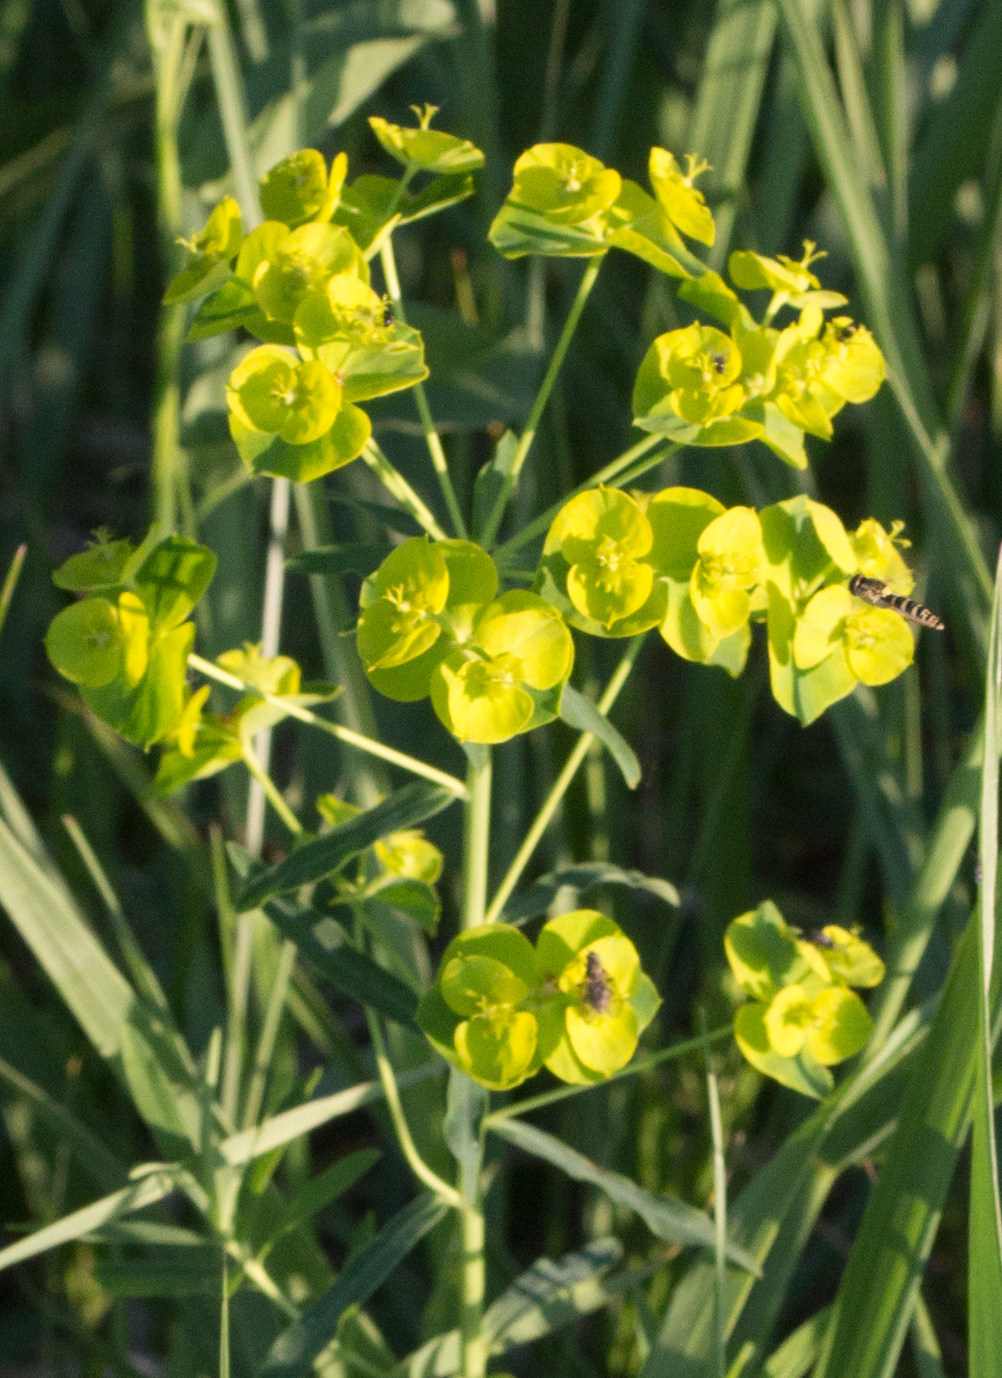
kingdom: Plantae
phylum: Tracheophyta
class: Magnoliopsida
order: Malpighiales
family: Euphorbiaceae
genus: Euphorbia
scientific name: Euphorbia virgata
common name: Leafy spurge
